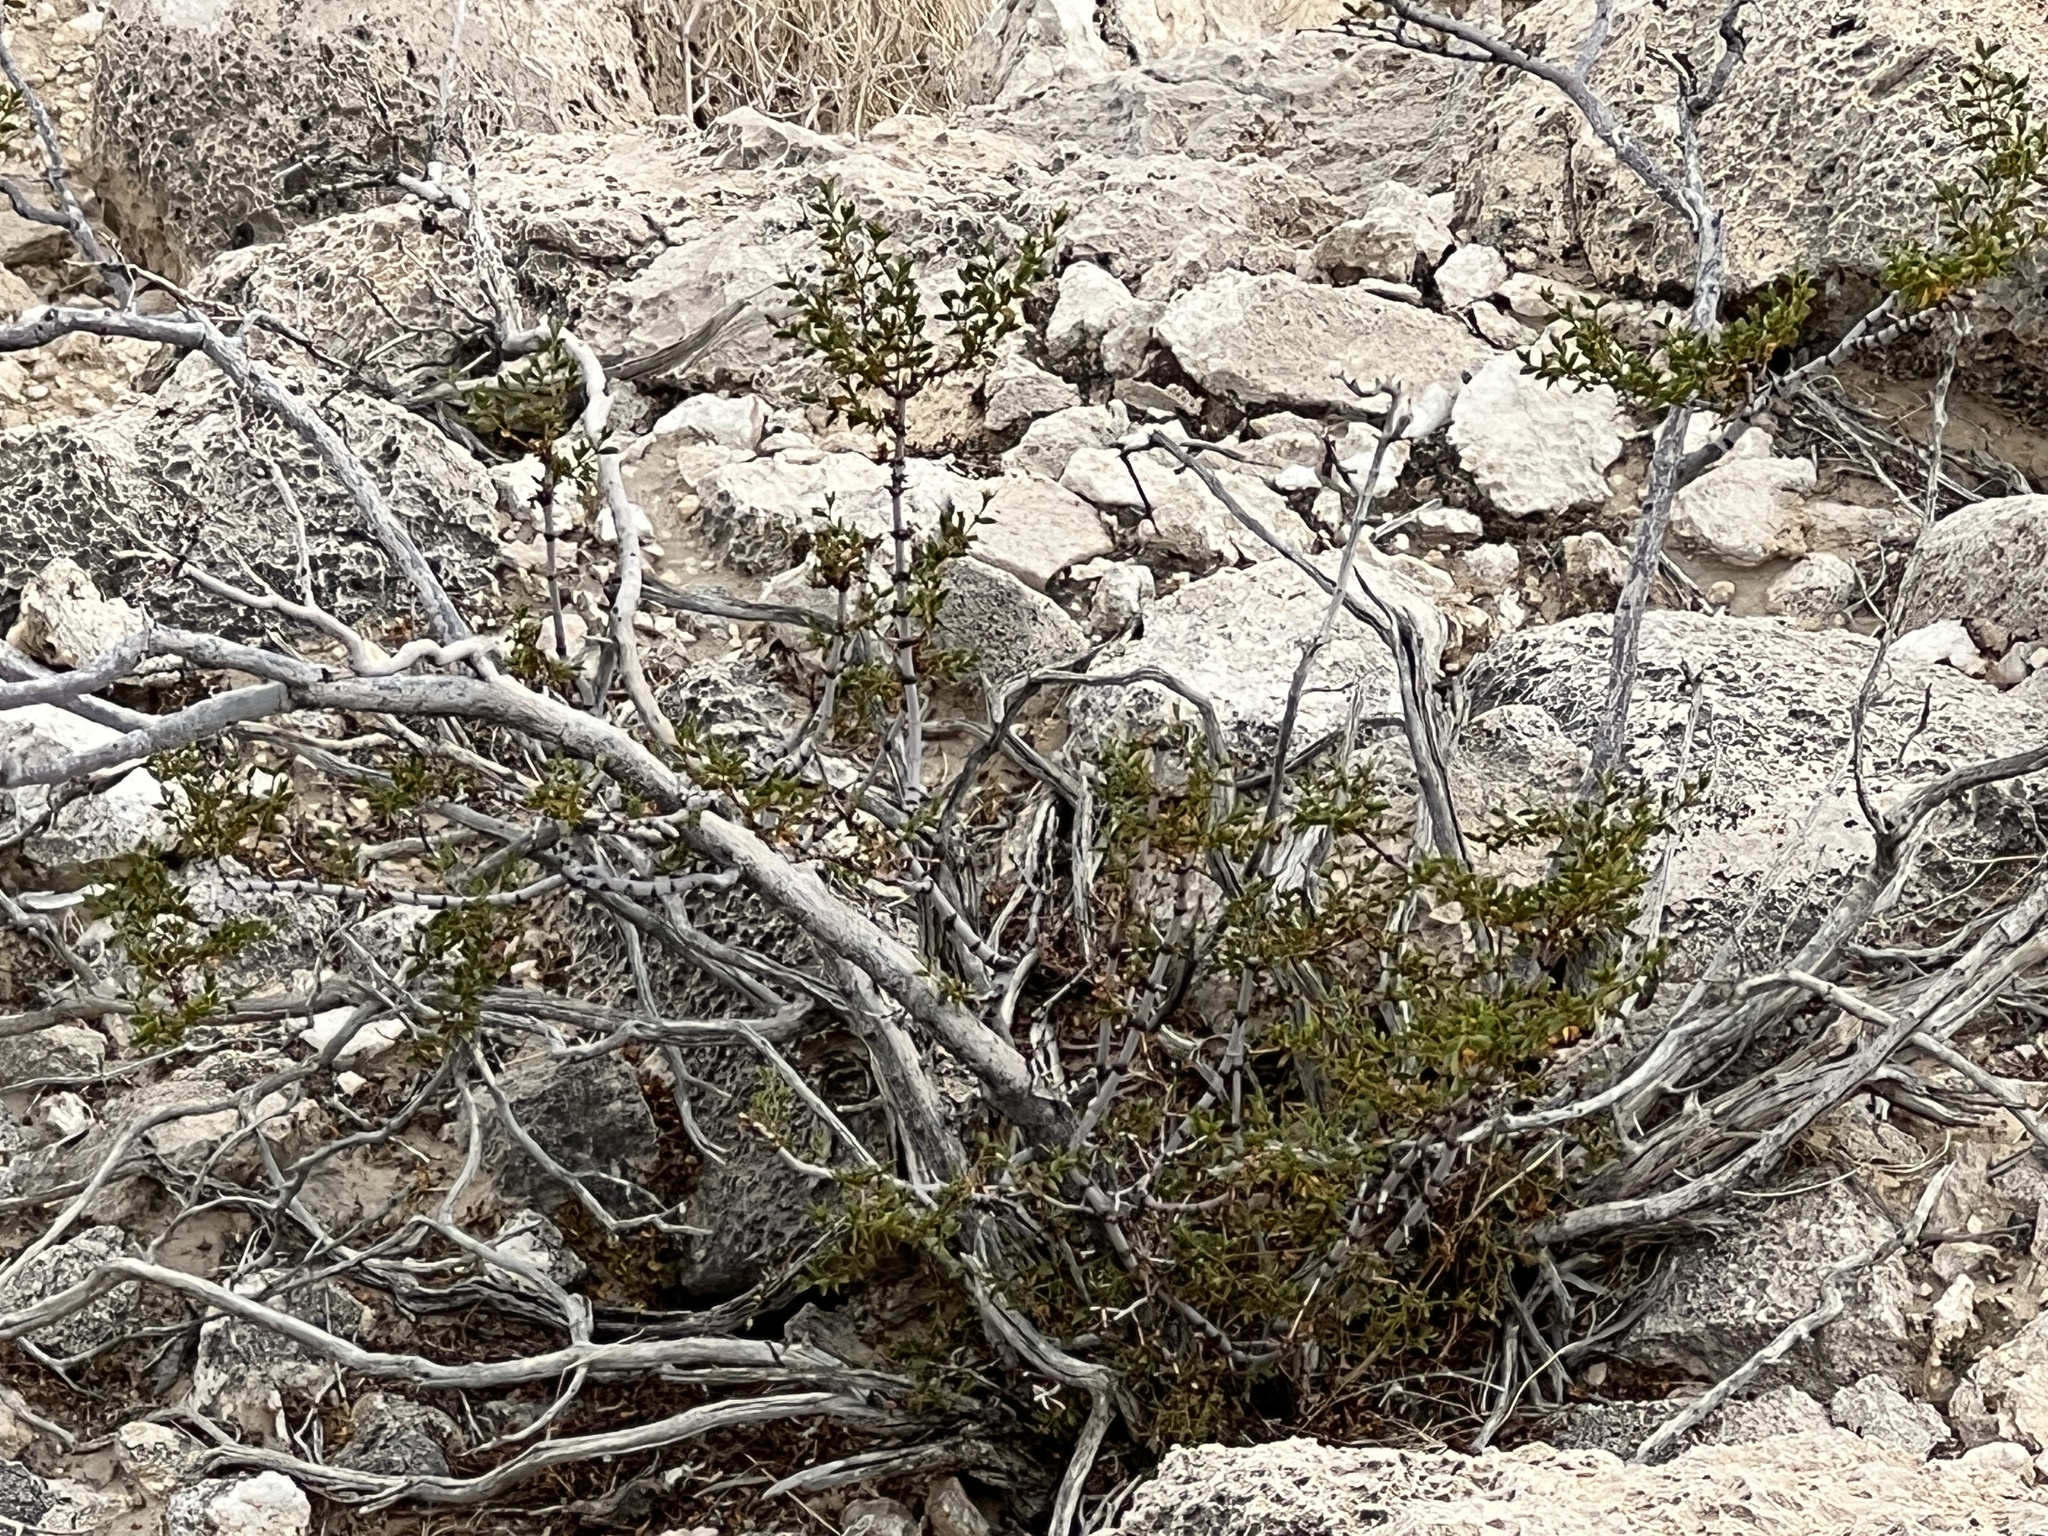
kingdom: Plantae
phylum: Tracheophyta
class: Magnoliopsida
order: Zygophyllales
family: Zygophyllaceae
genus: Larrea
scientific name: Larrea tridentata
